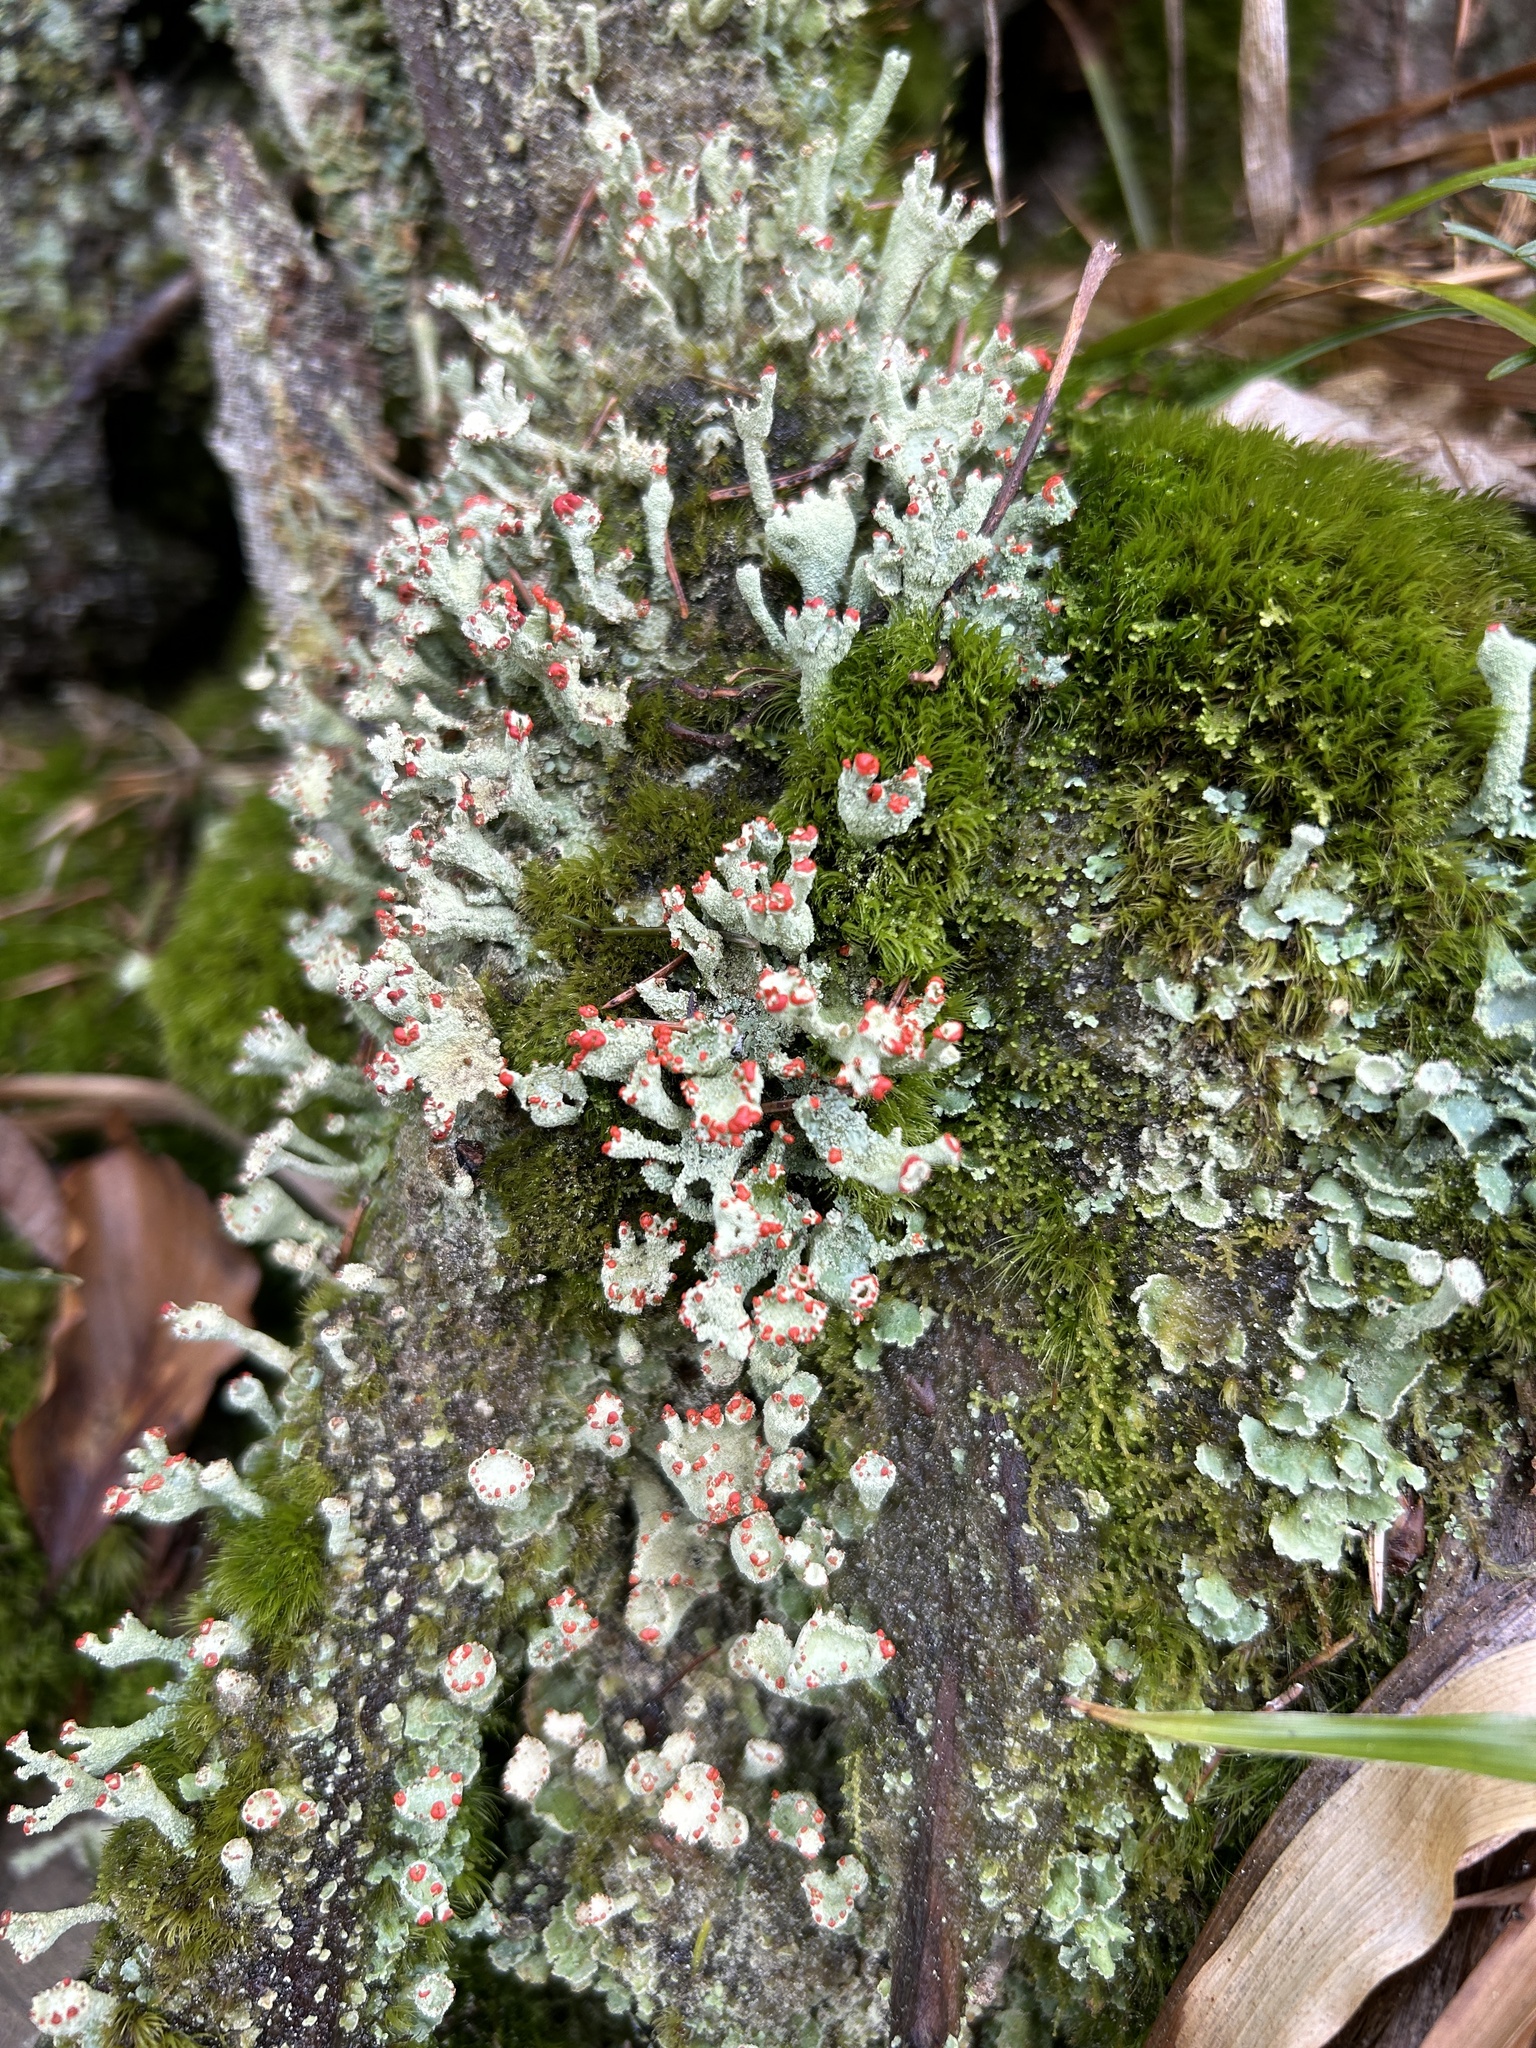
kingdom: Fungi
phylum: Ascomycota
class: Lecanoromycetes
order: Lecanorales
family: Cladoniaceae
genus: Cladonia
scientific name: Cladonia digitata
